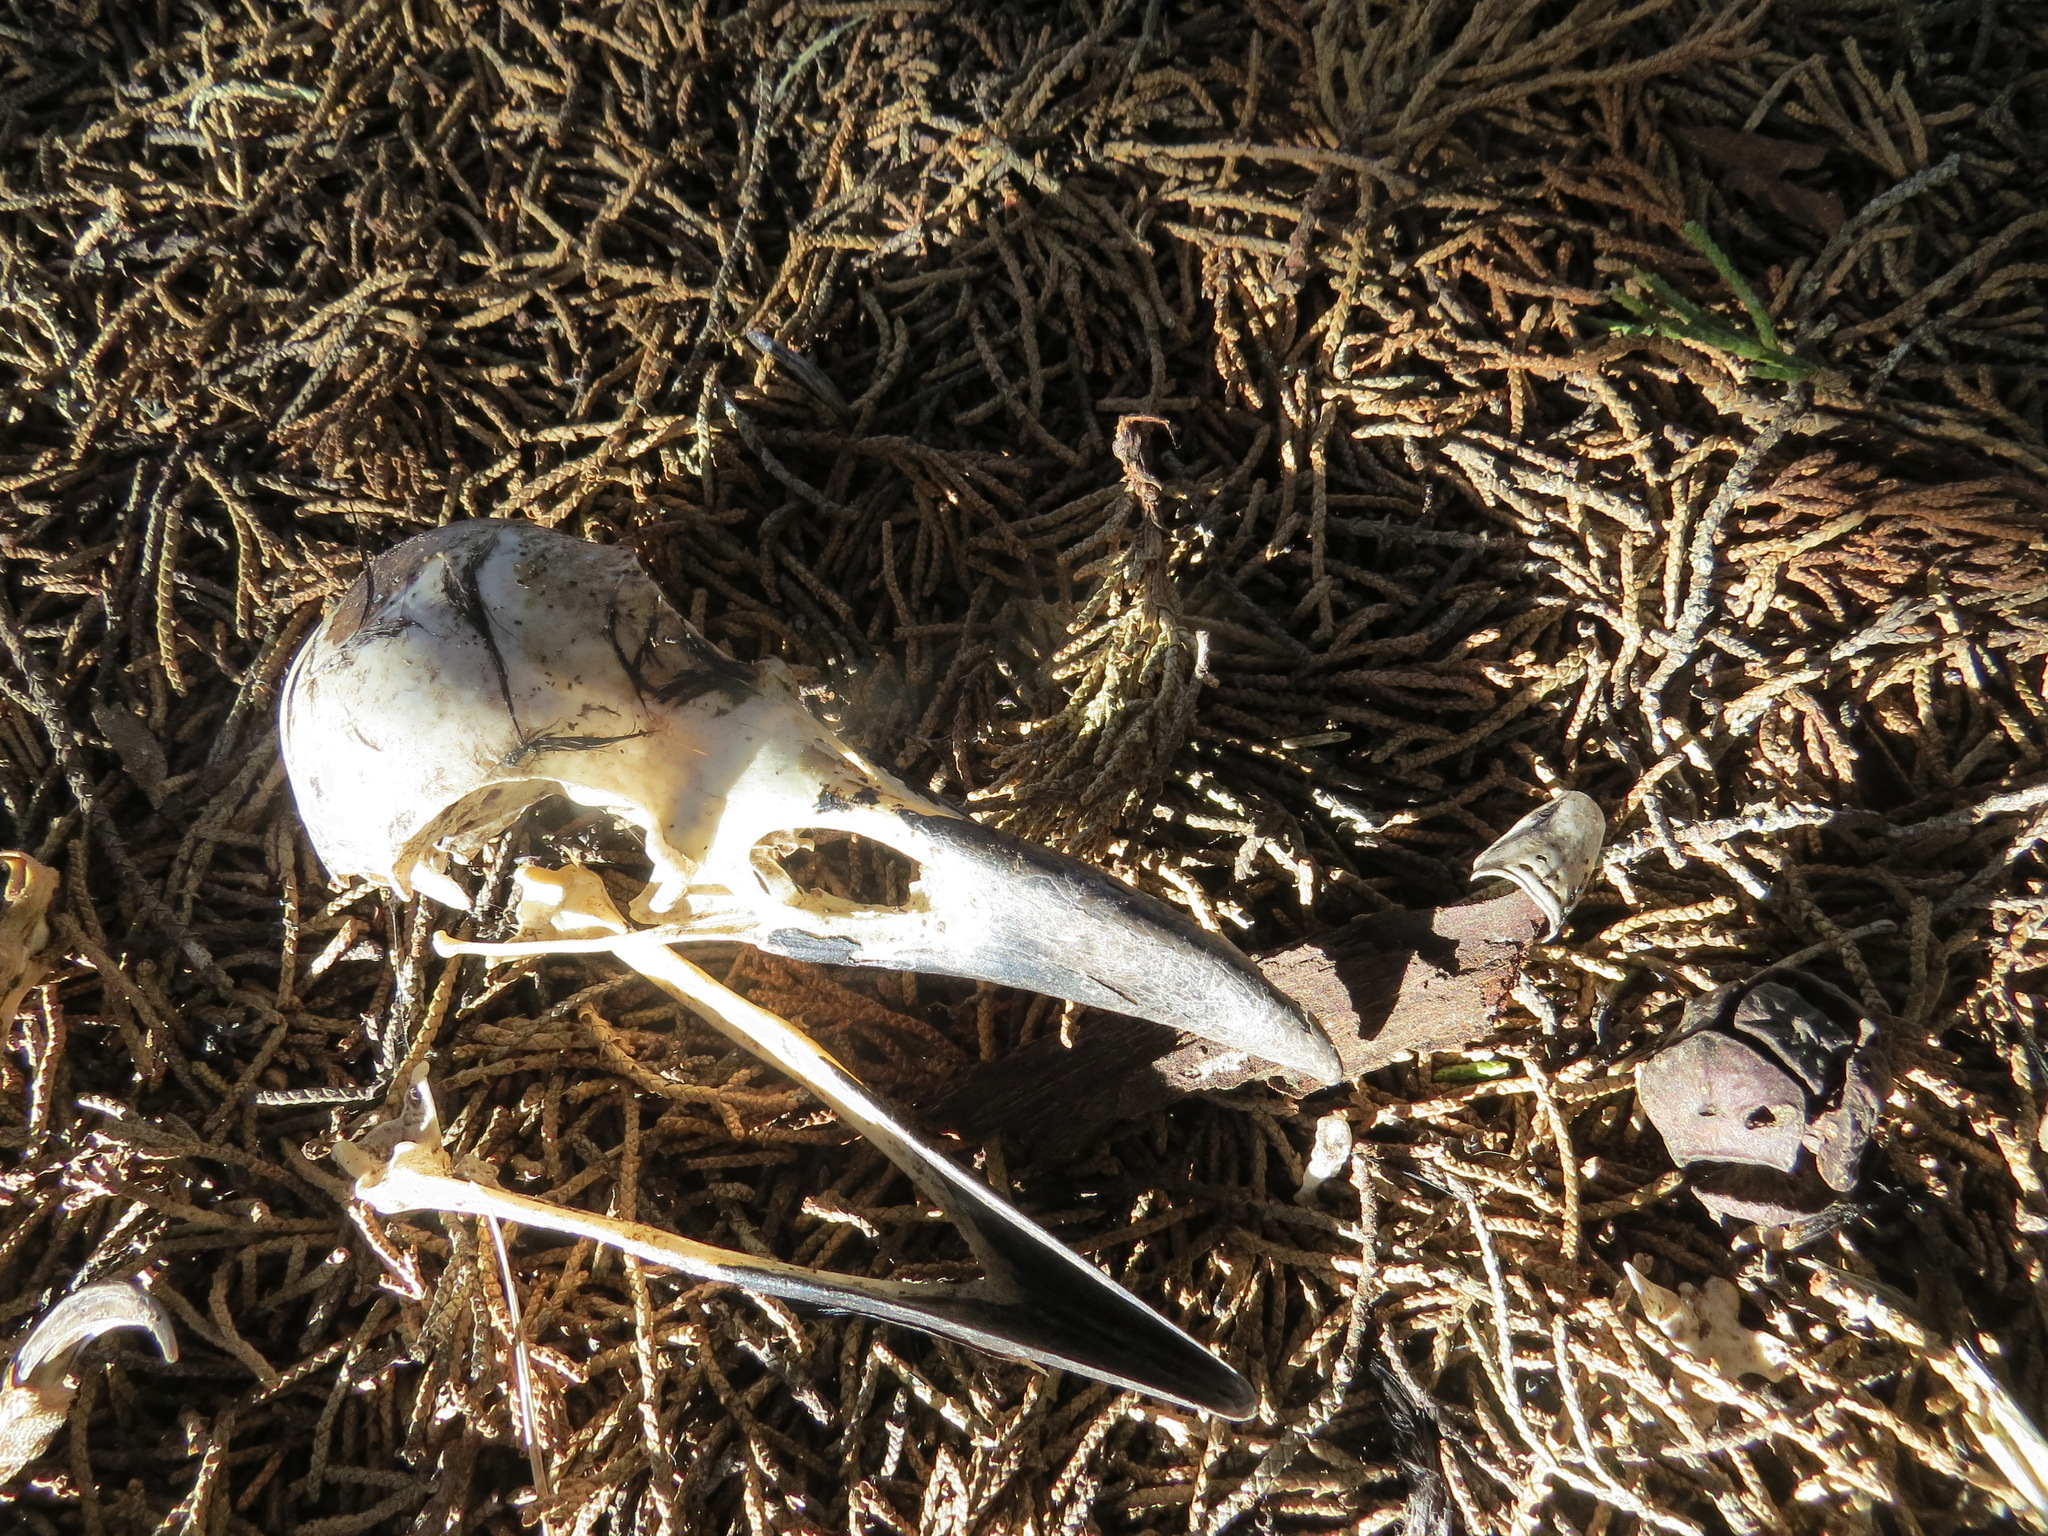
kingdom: Animalia
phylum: Chordata
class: Aves
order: Passeriformes
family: Corvidae
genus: Corvus
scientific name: Corvus corax
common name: Common raven
